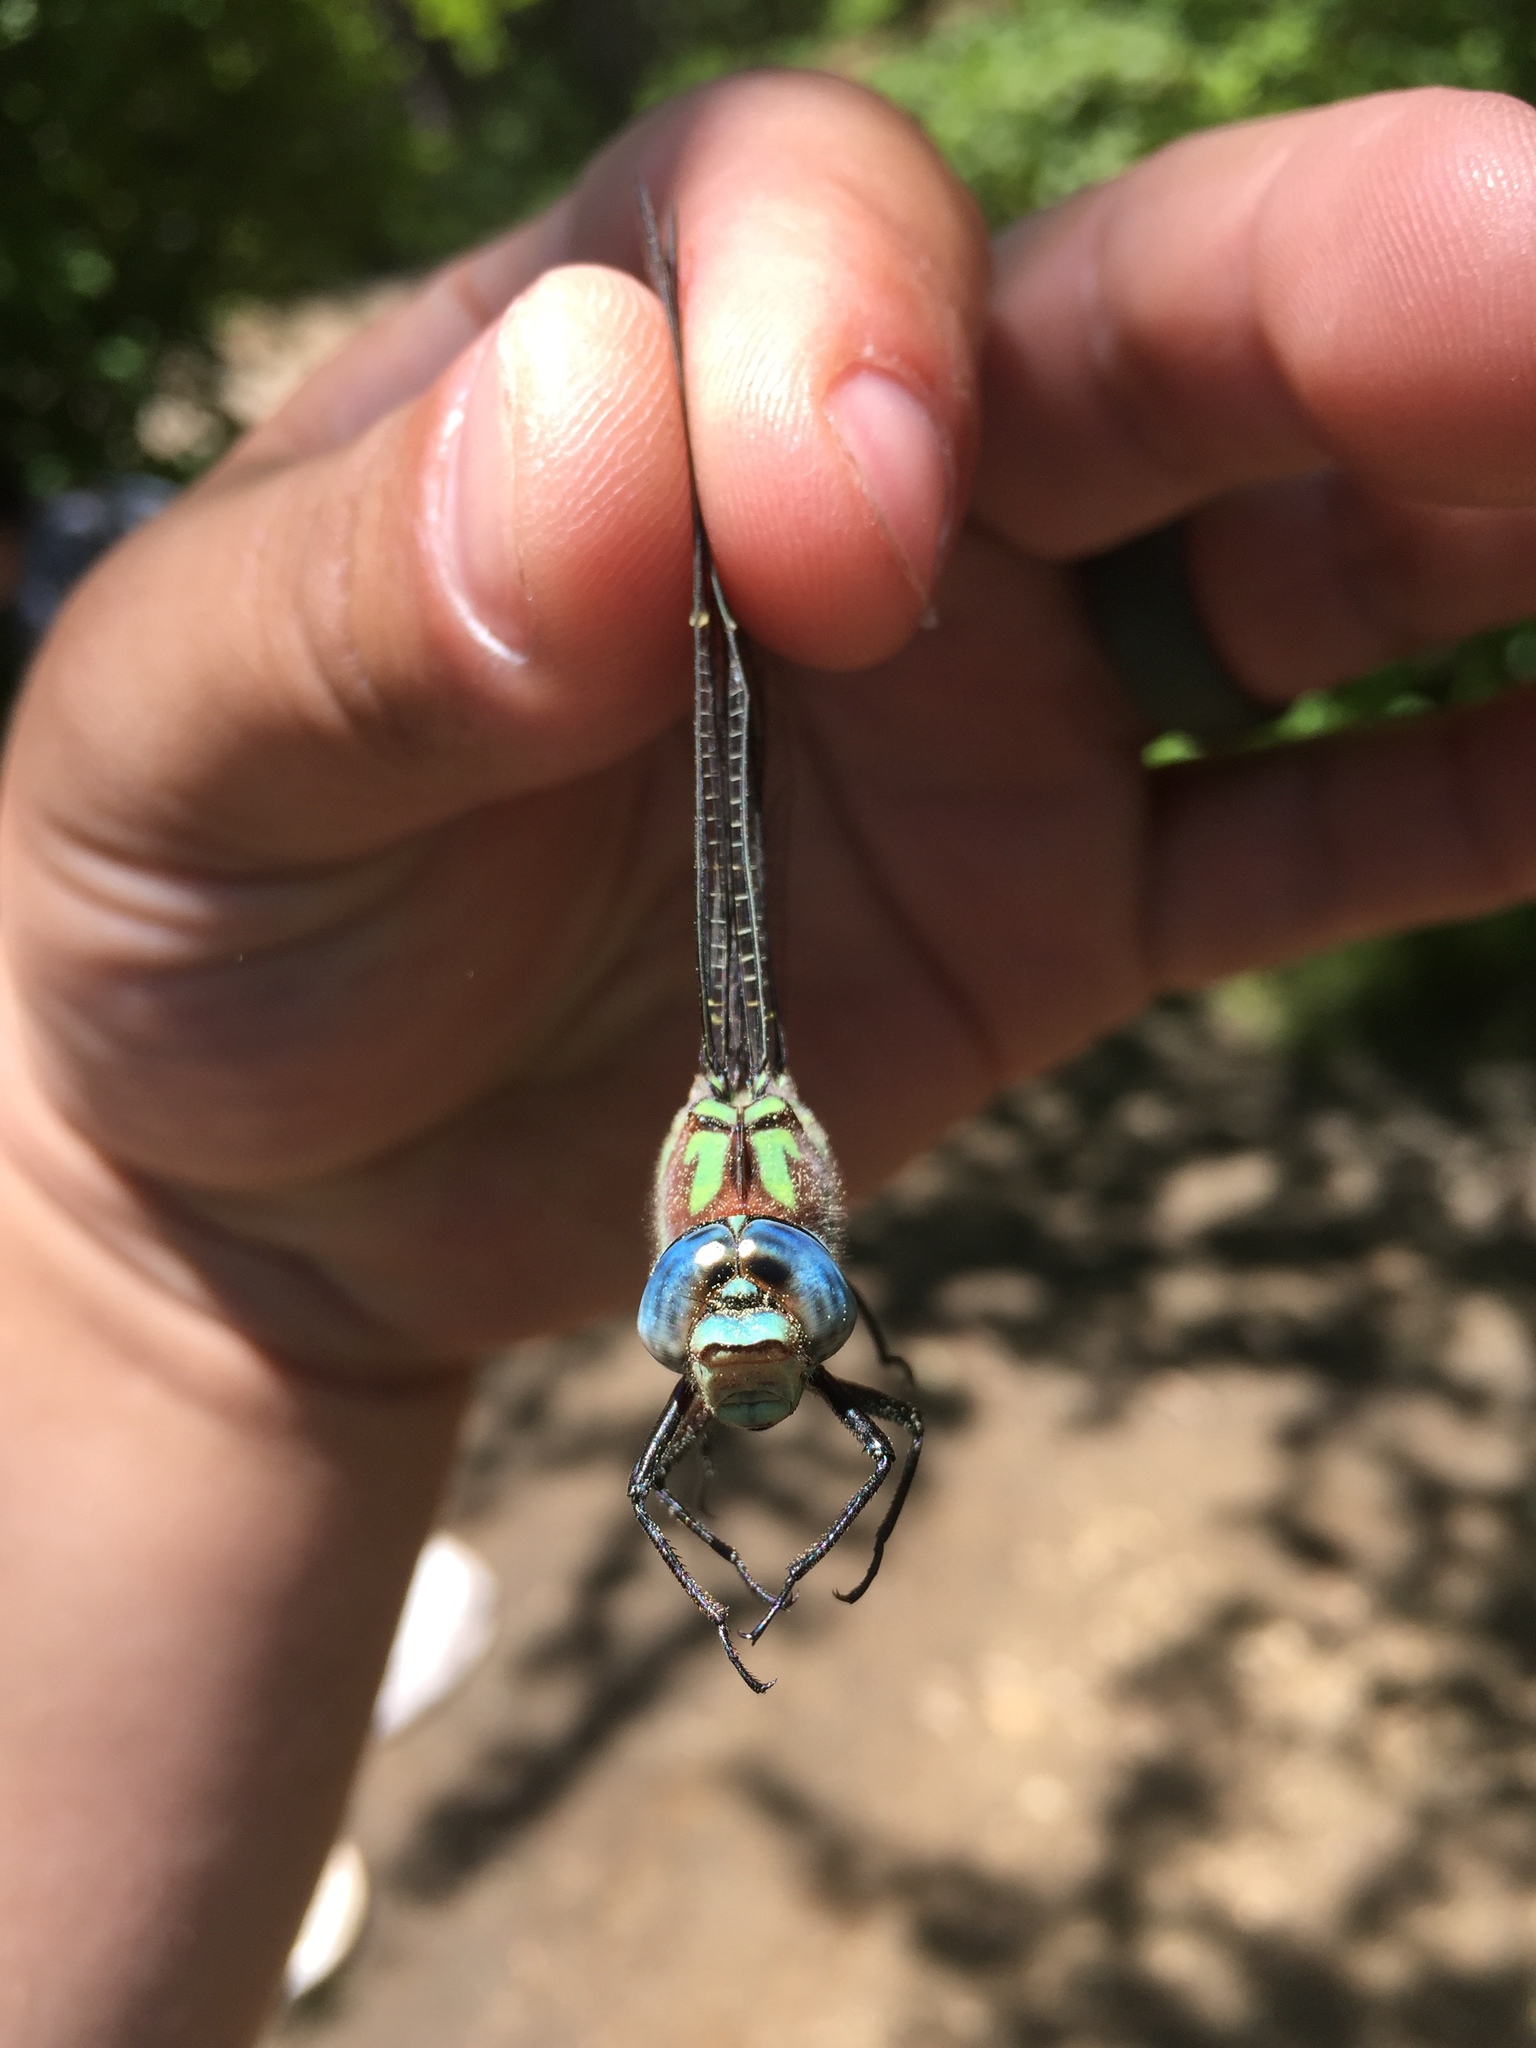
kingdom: Animalia
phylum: Arthropoda
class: Insecta
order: Odonata
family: Aeshnidae
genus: Nasiaeschna
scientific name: Nasiaeschna pentacantha
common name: Cyrano darner
